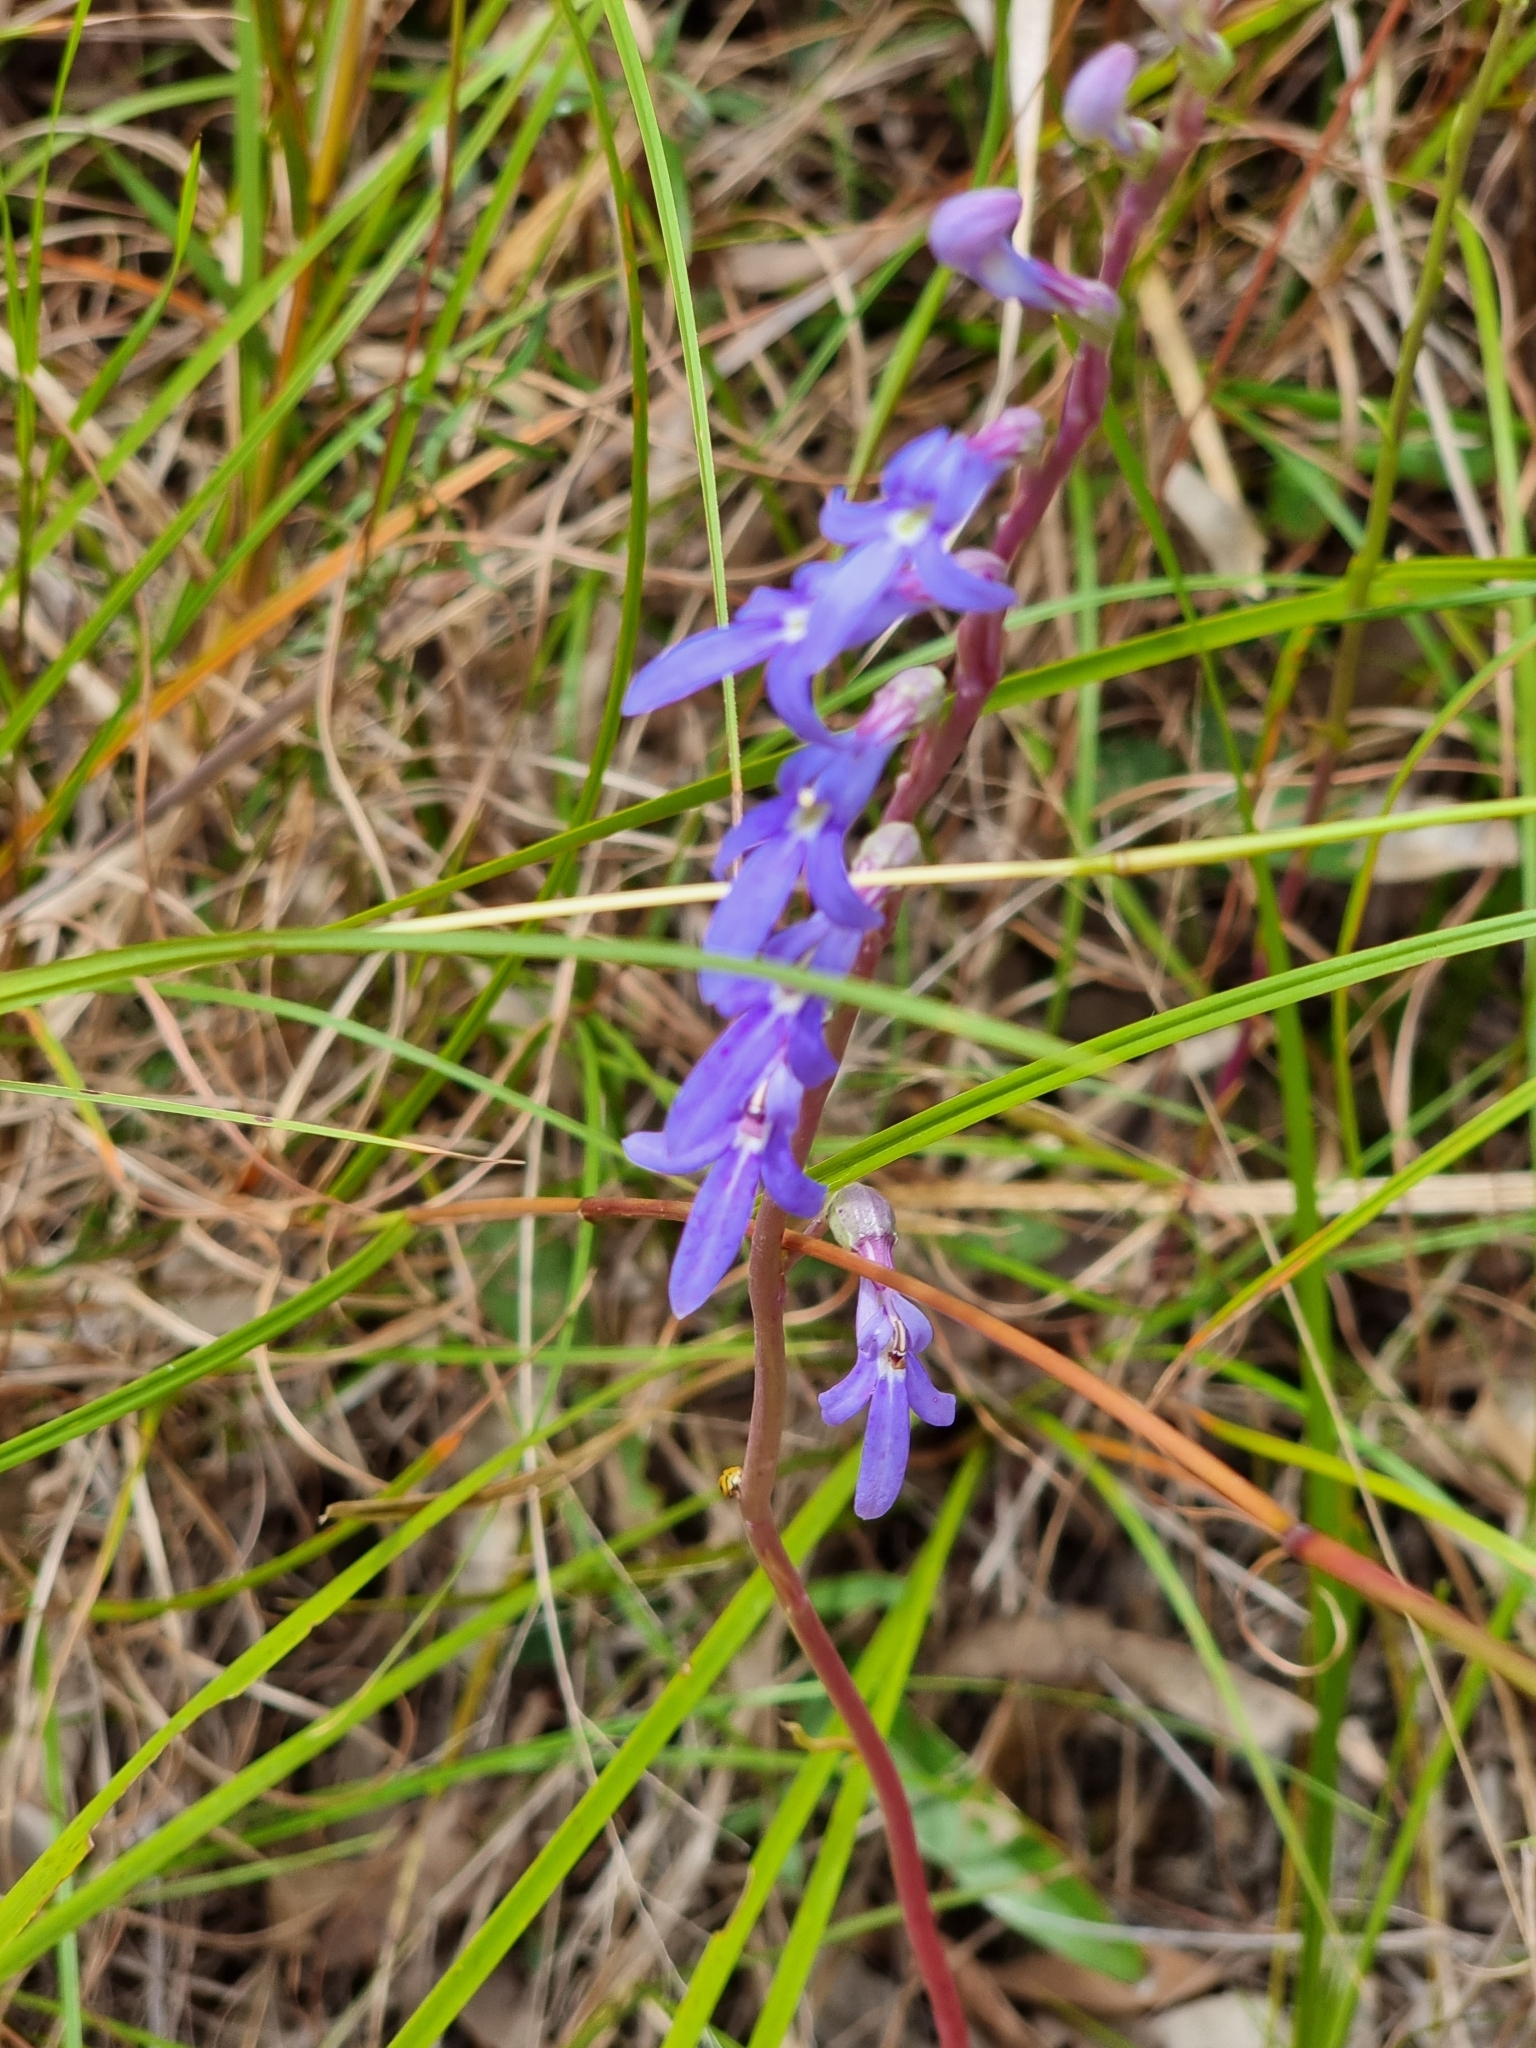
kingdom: Plantae
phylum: Tracheophyta
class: Magnoliopsida
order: Asterales
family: Campanulaceae
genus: Lobelia
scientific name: Lobelia gibbosa
